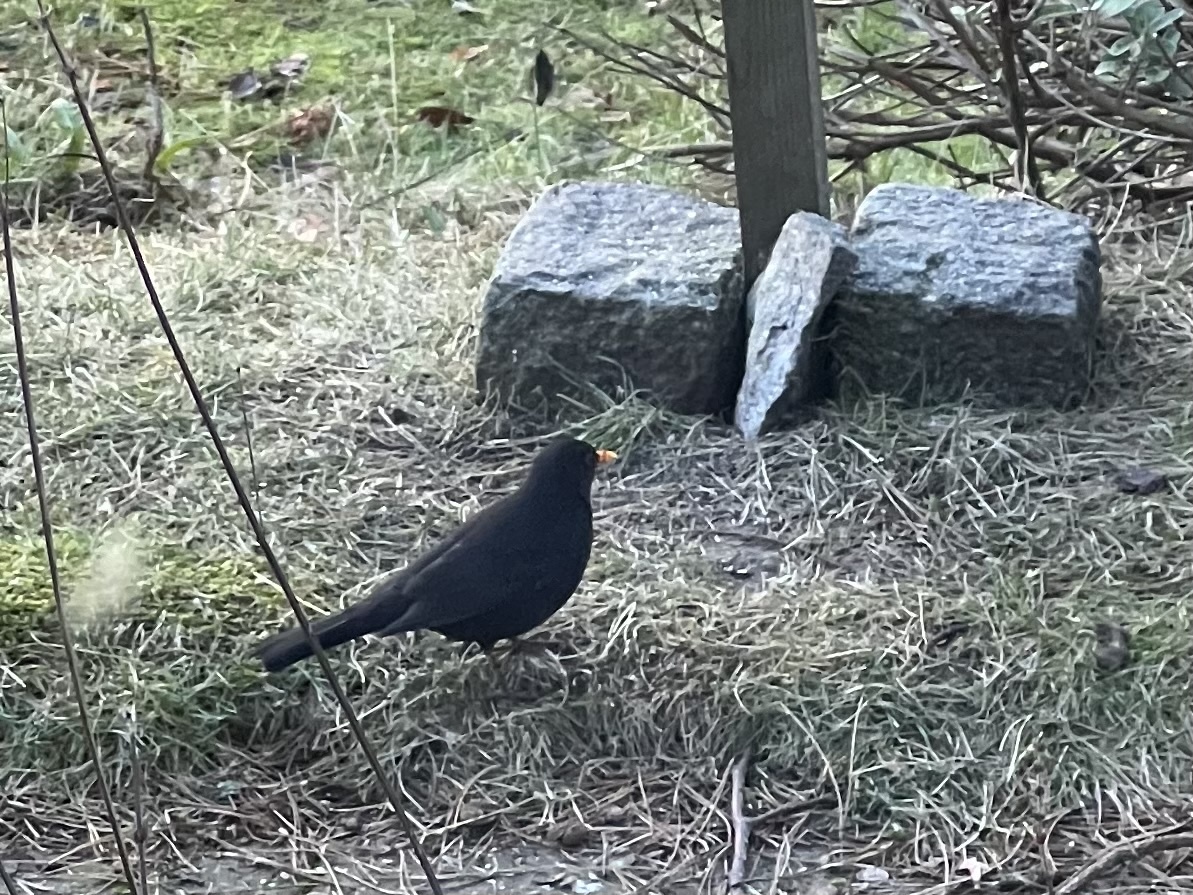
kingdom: Animalia
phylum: Chordata
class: Aves
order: Passeriformes
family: Turdidae
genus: Turdus
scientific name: Turdus merula
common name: Common blackbird
